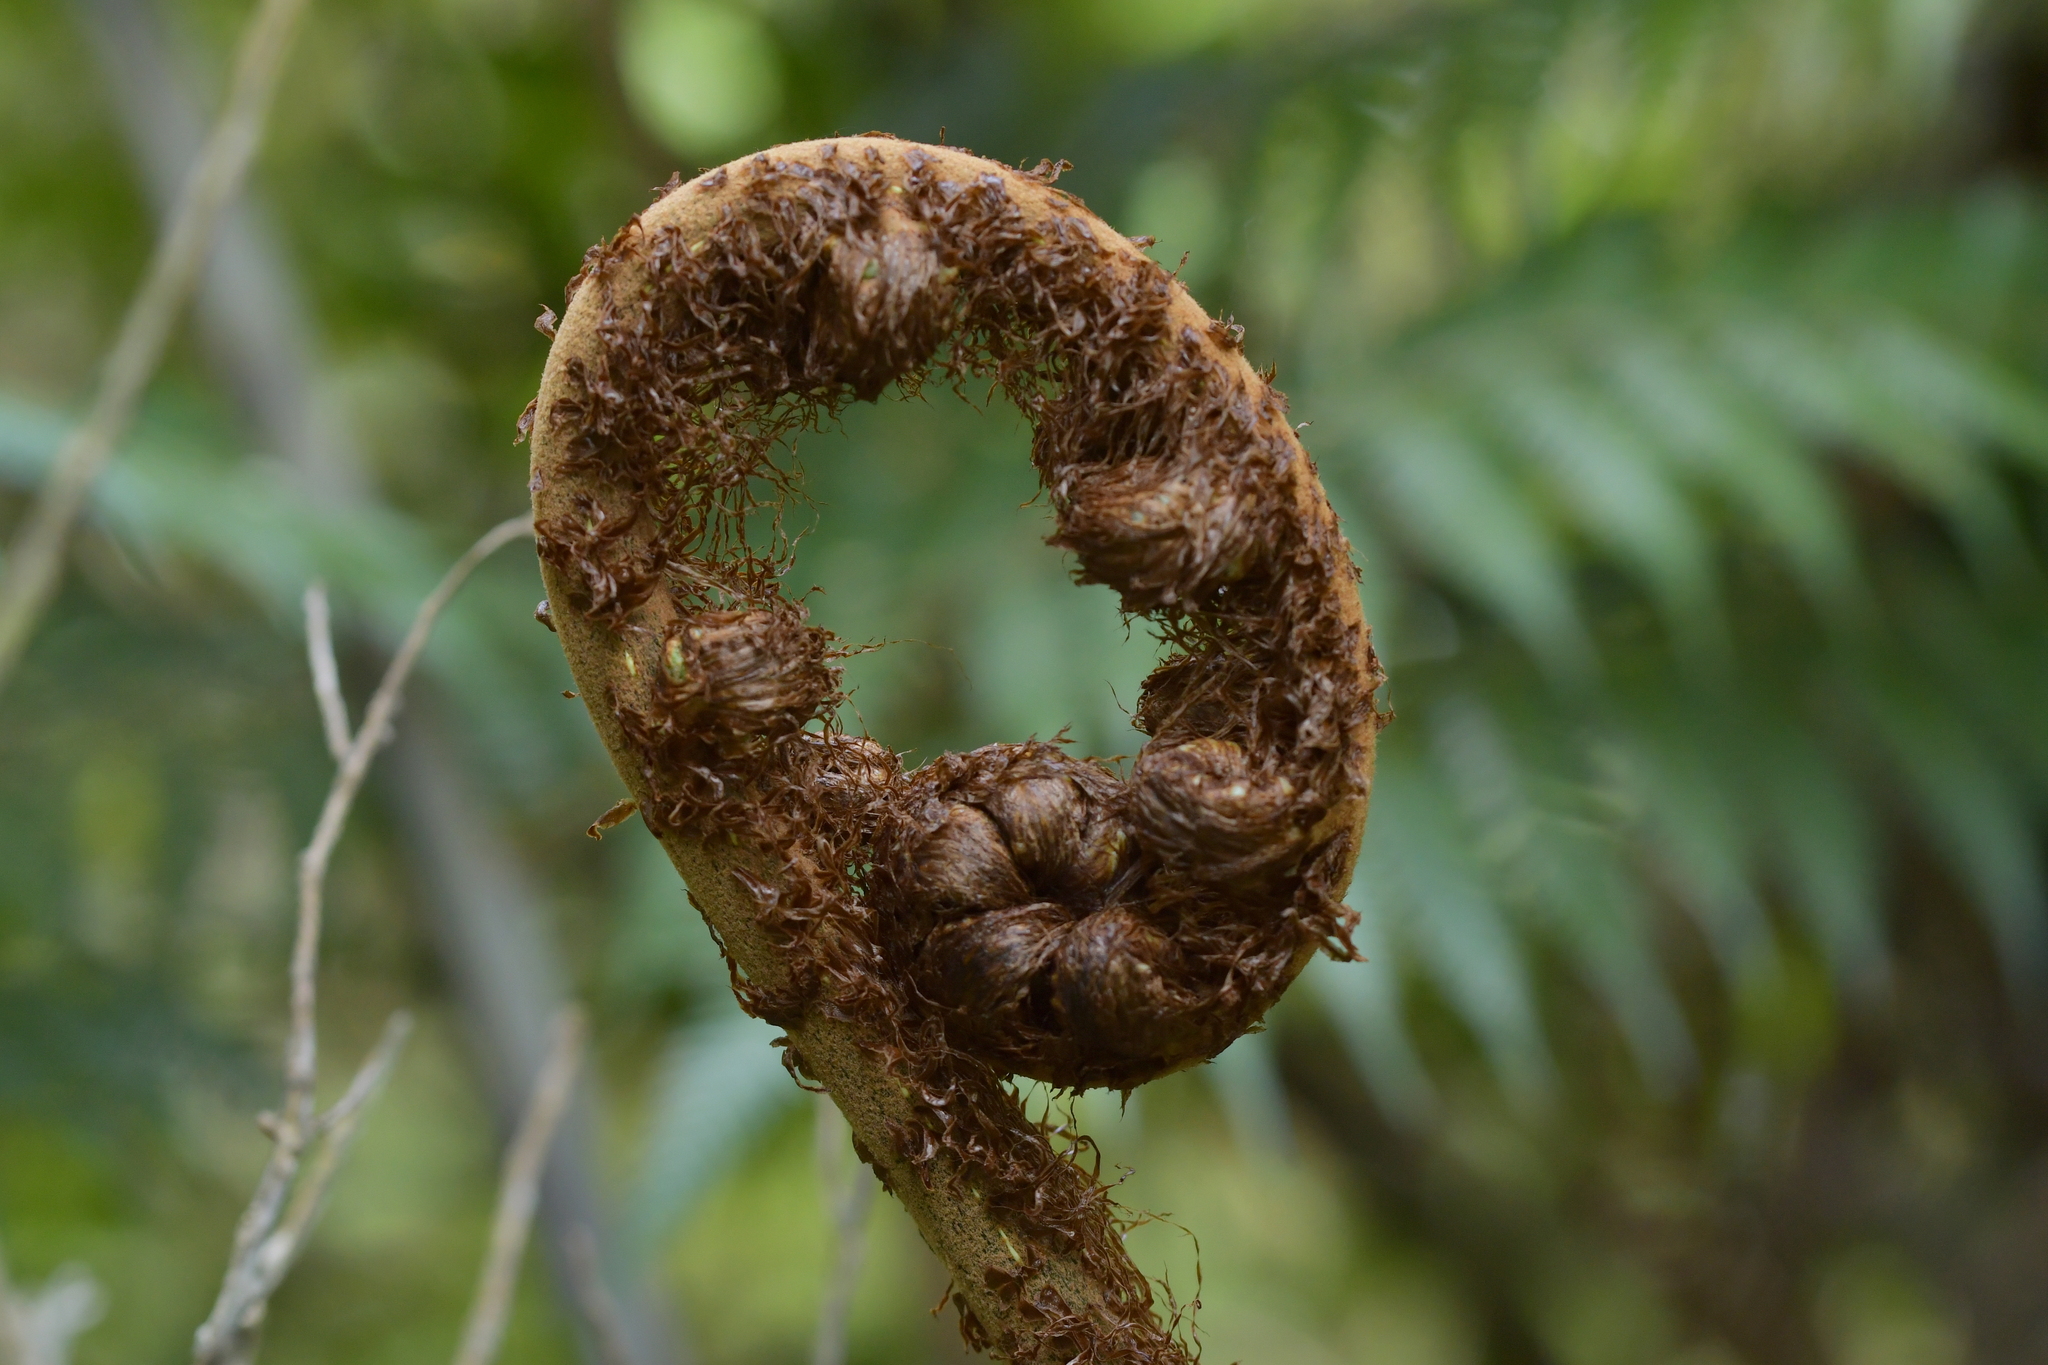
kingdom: Plantae
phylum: Tracheophyta
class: Polypodiopsida
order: Cyatheales
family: Cyatheaceae
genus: Alsophila
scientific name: Alsophila dealbata
